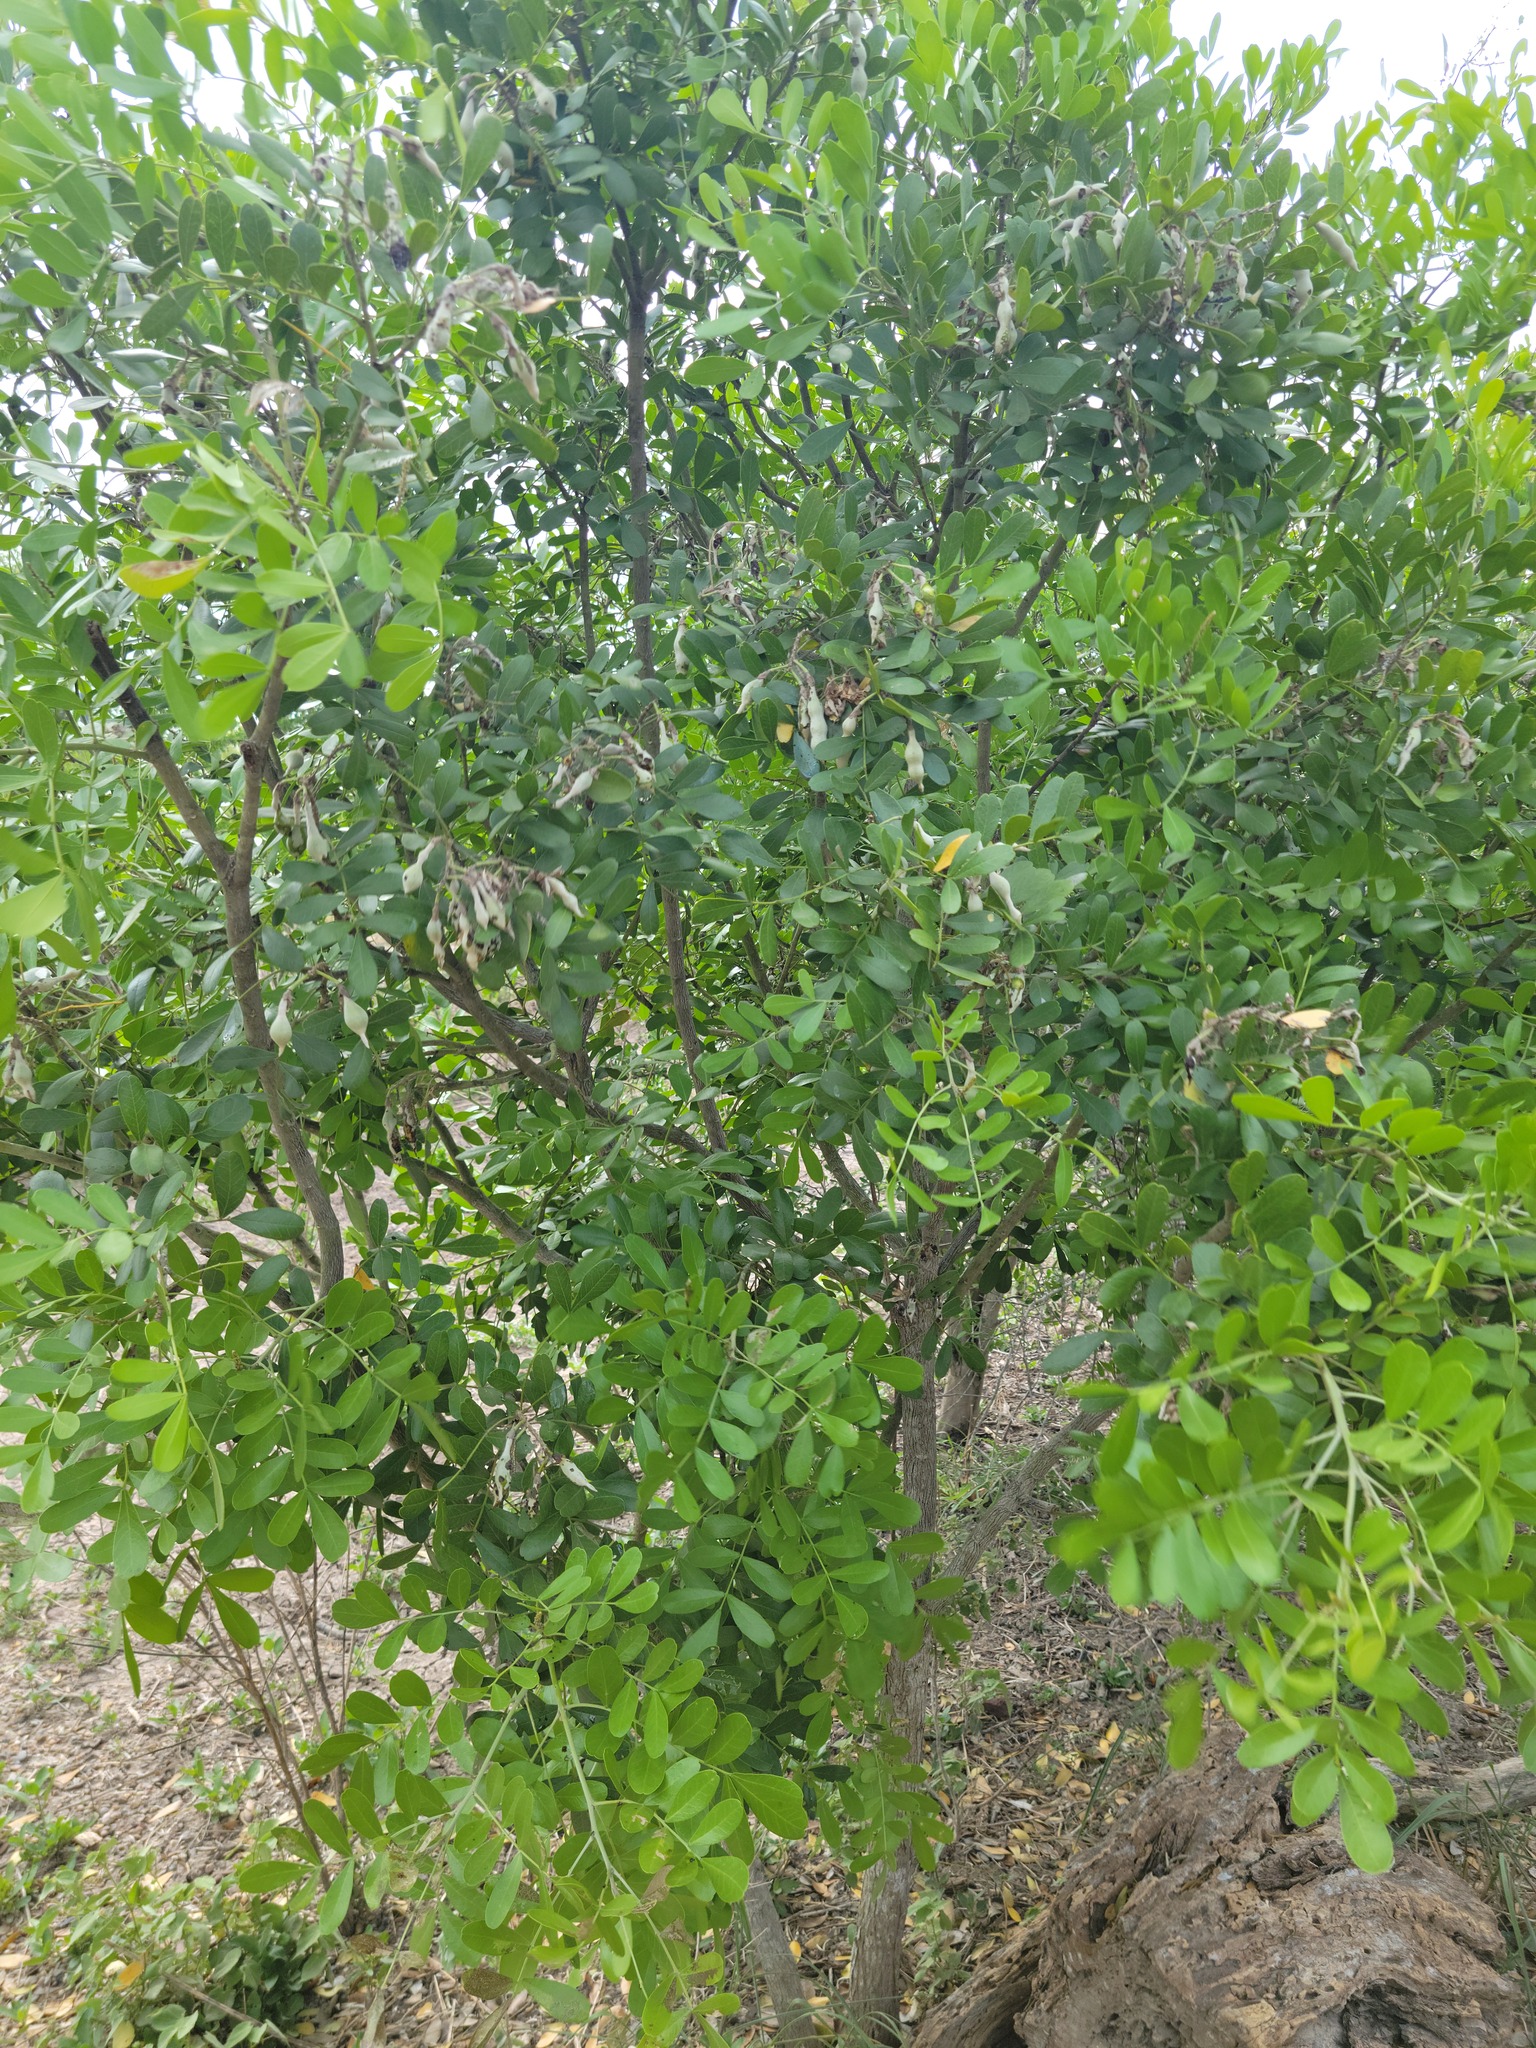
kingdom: Plantae
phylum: Tracheophyta
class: Magnoliopsida
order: Fabales
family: Fabaceae
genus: Dermatophyllum
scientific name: Dermatophyllum secundiflorum
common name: Texas-mountain-laurel
